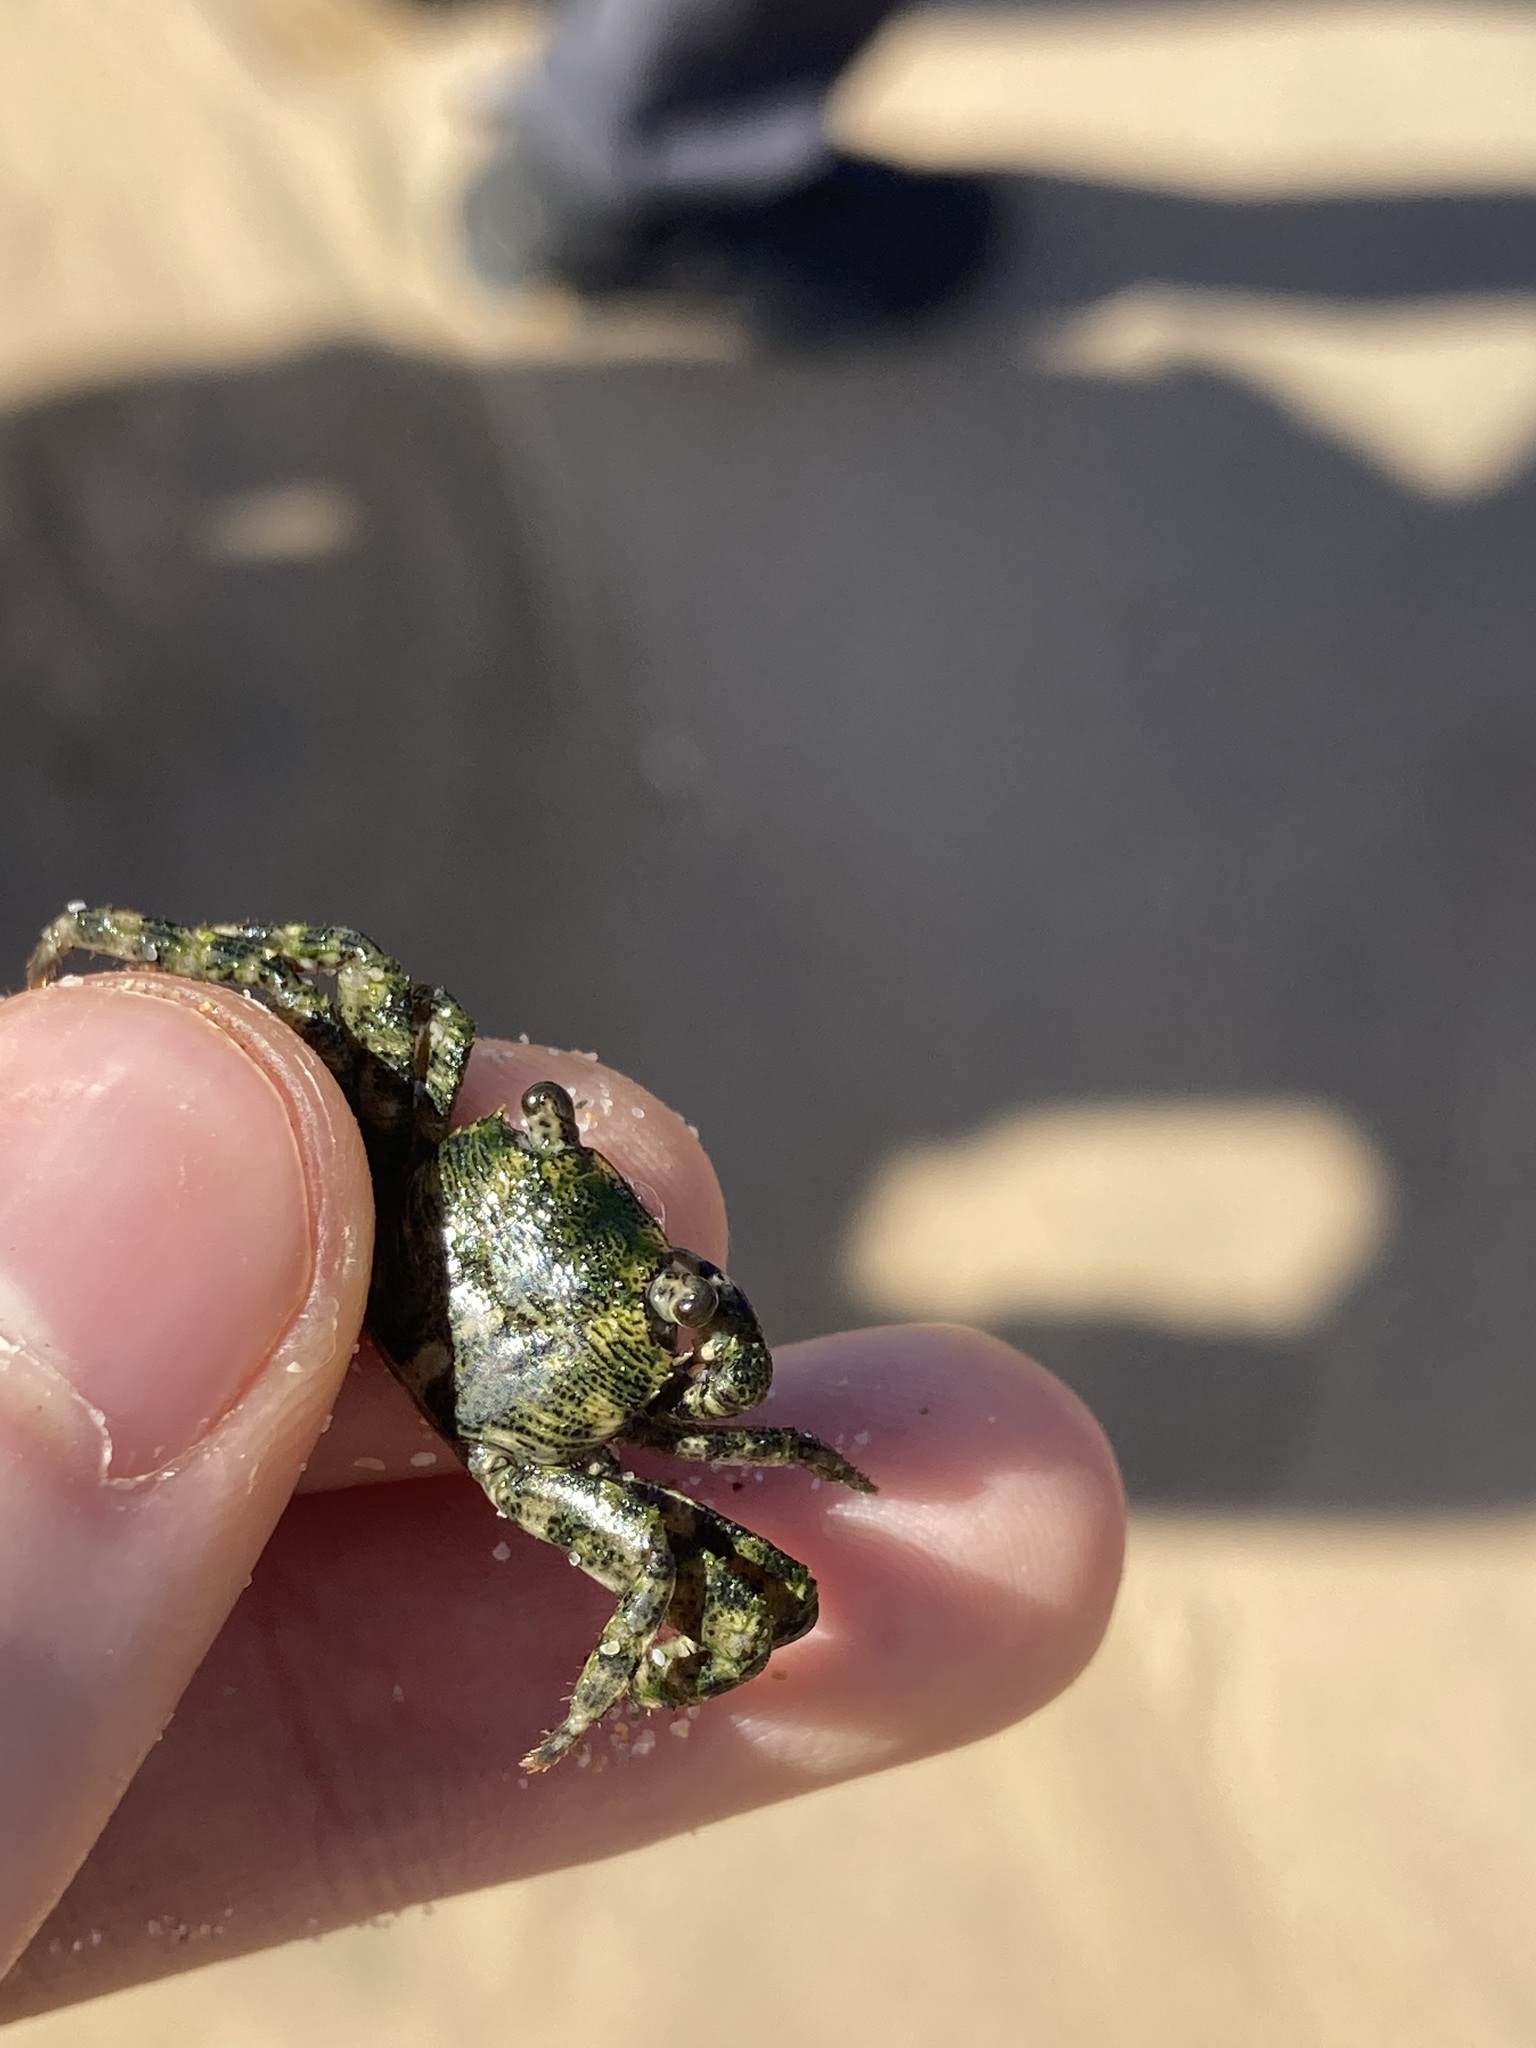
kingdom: Animalia
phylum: Arthropoda
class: Malacostraca
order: Decapoda
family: Grapsidae
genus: Leptograpsus
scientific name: Leptograpsus variegatus
